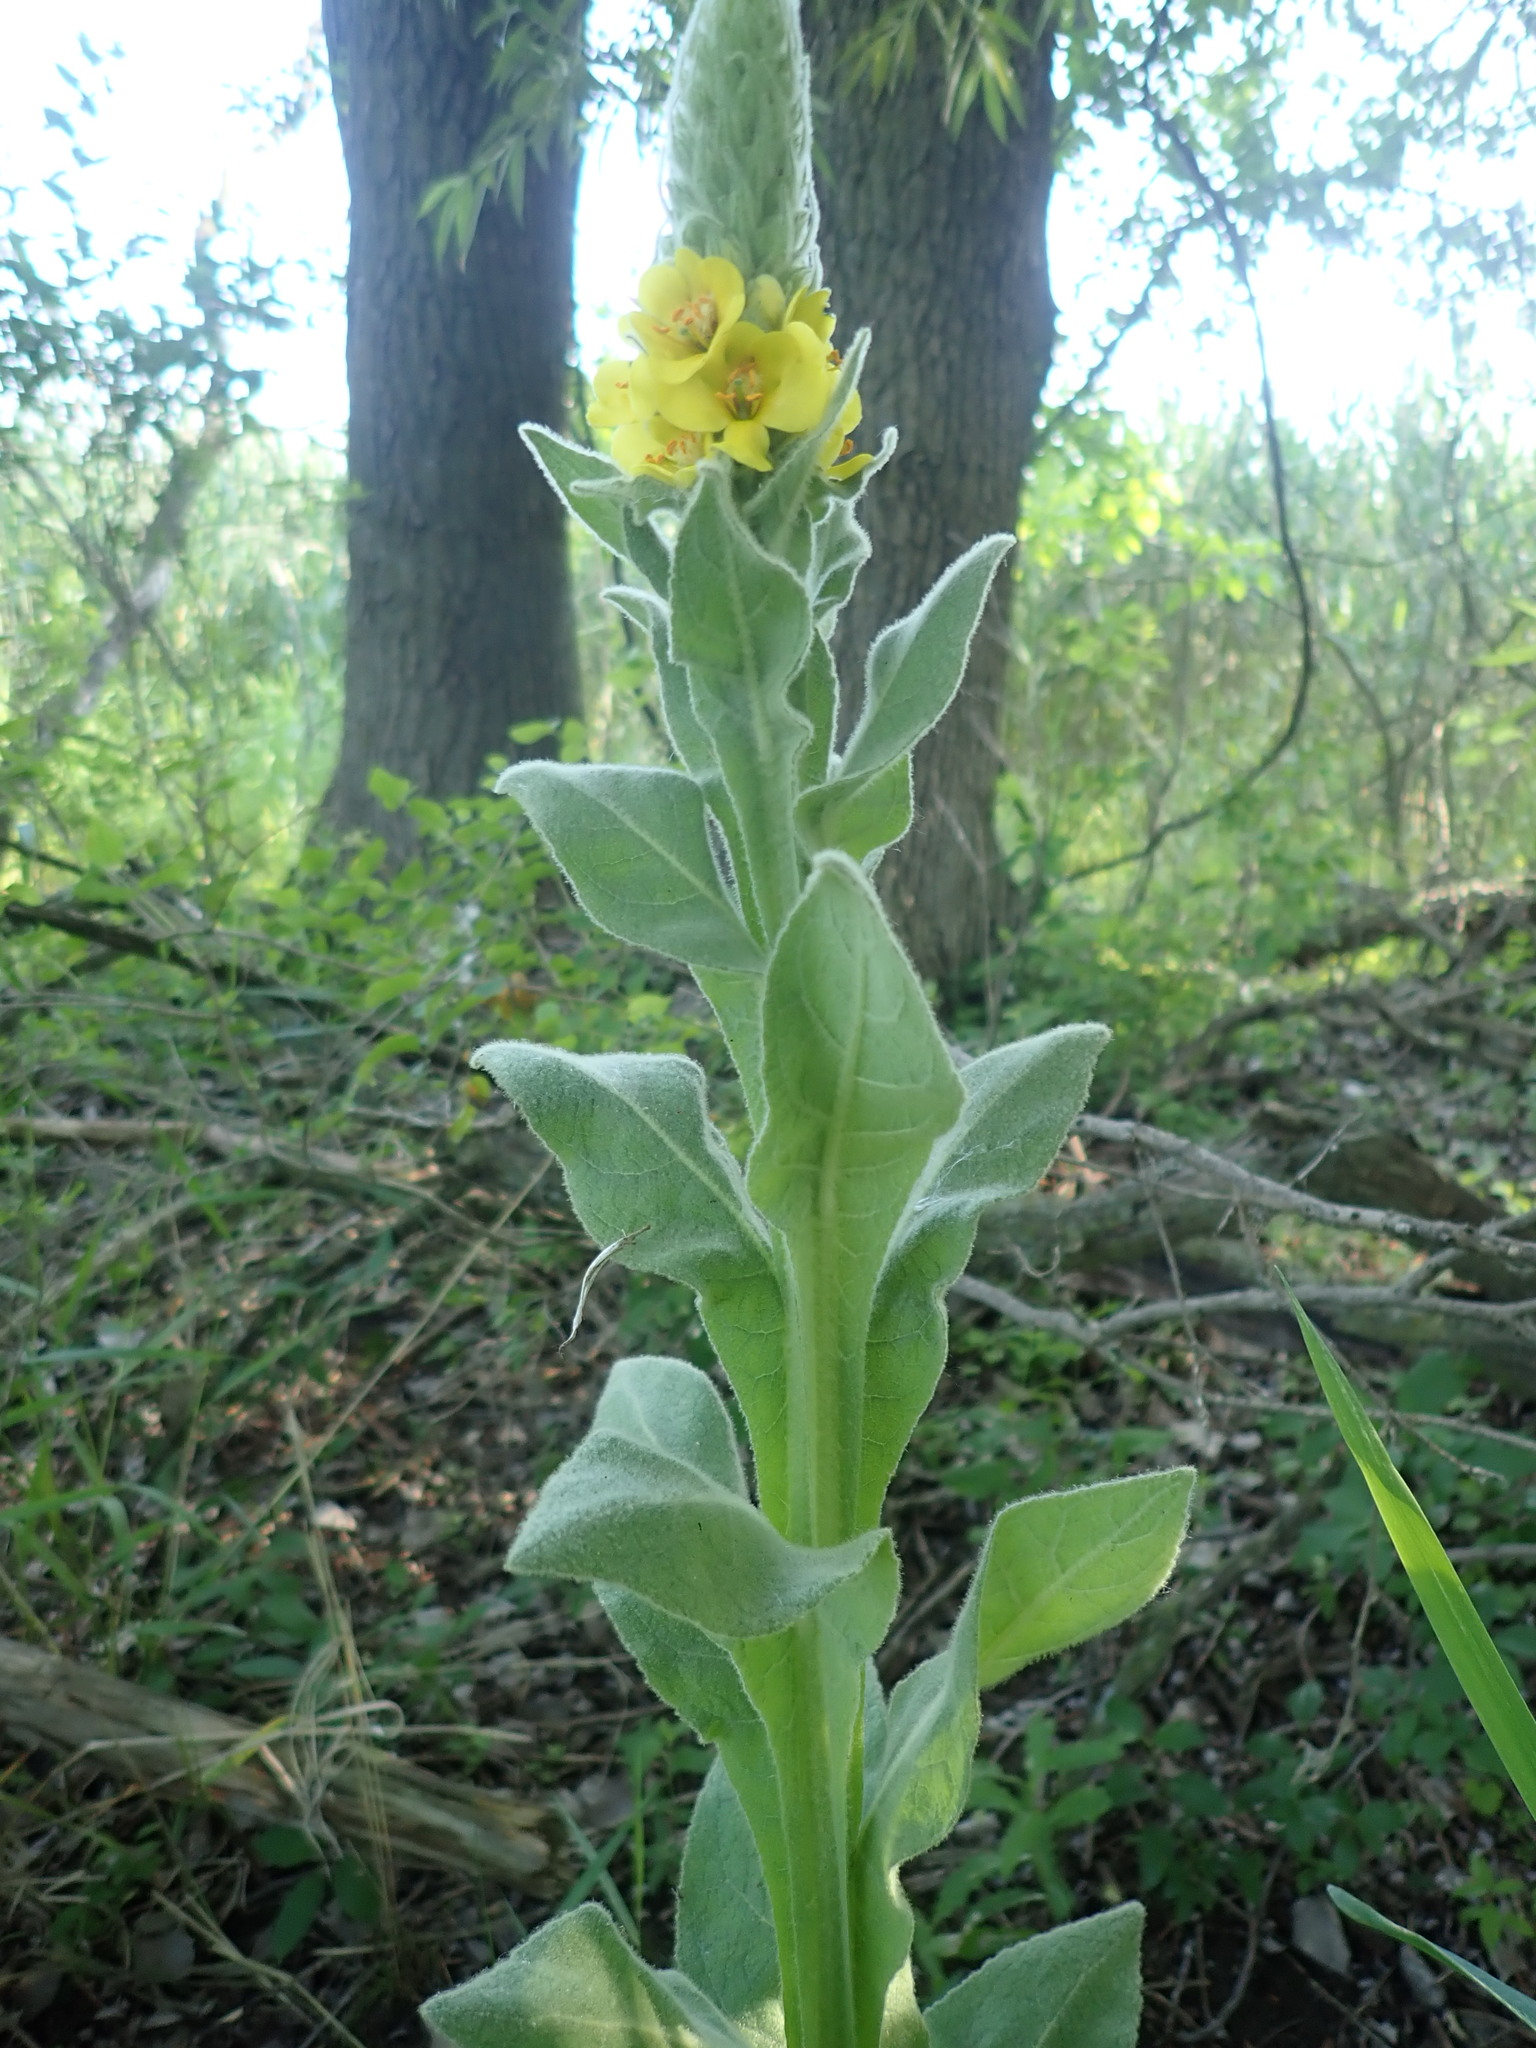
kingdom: Plantae
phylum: Tracheophyta
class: Magnoliopsida
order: Lamiales
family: Scrophulariaceae
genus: Verbascum
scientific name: Verbascum thapsus
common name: Common mullein
